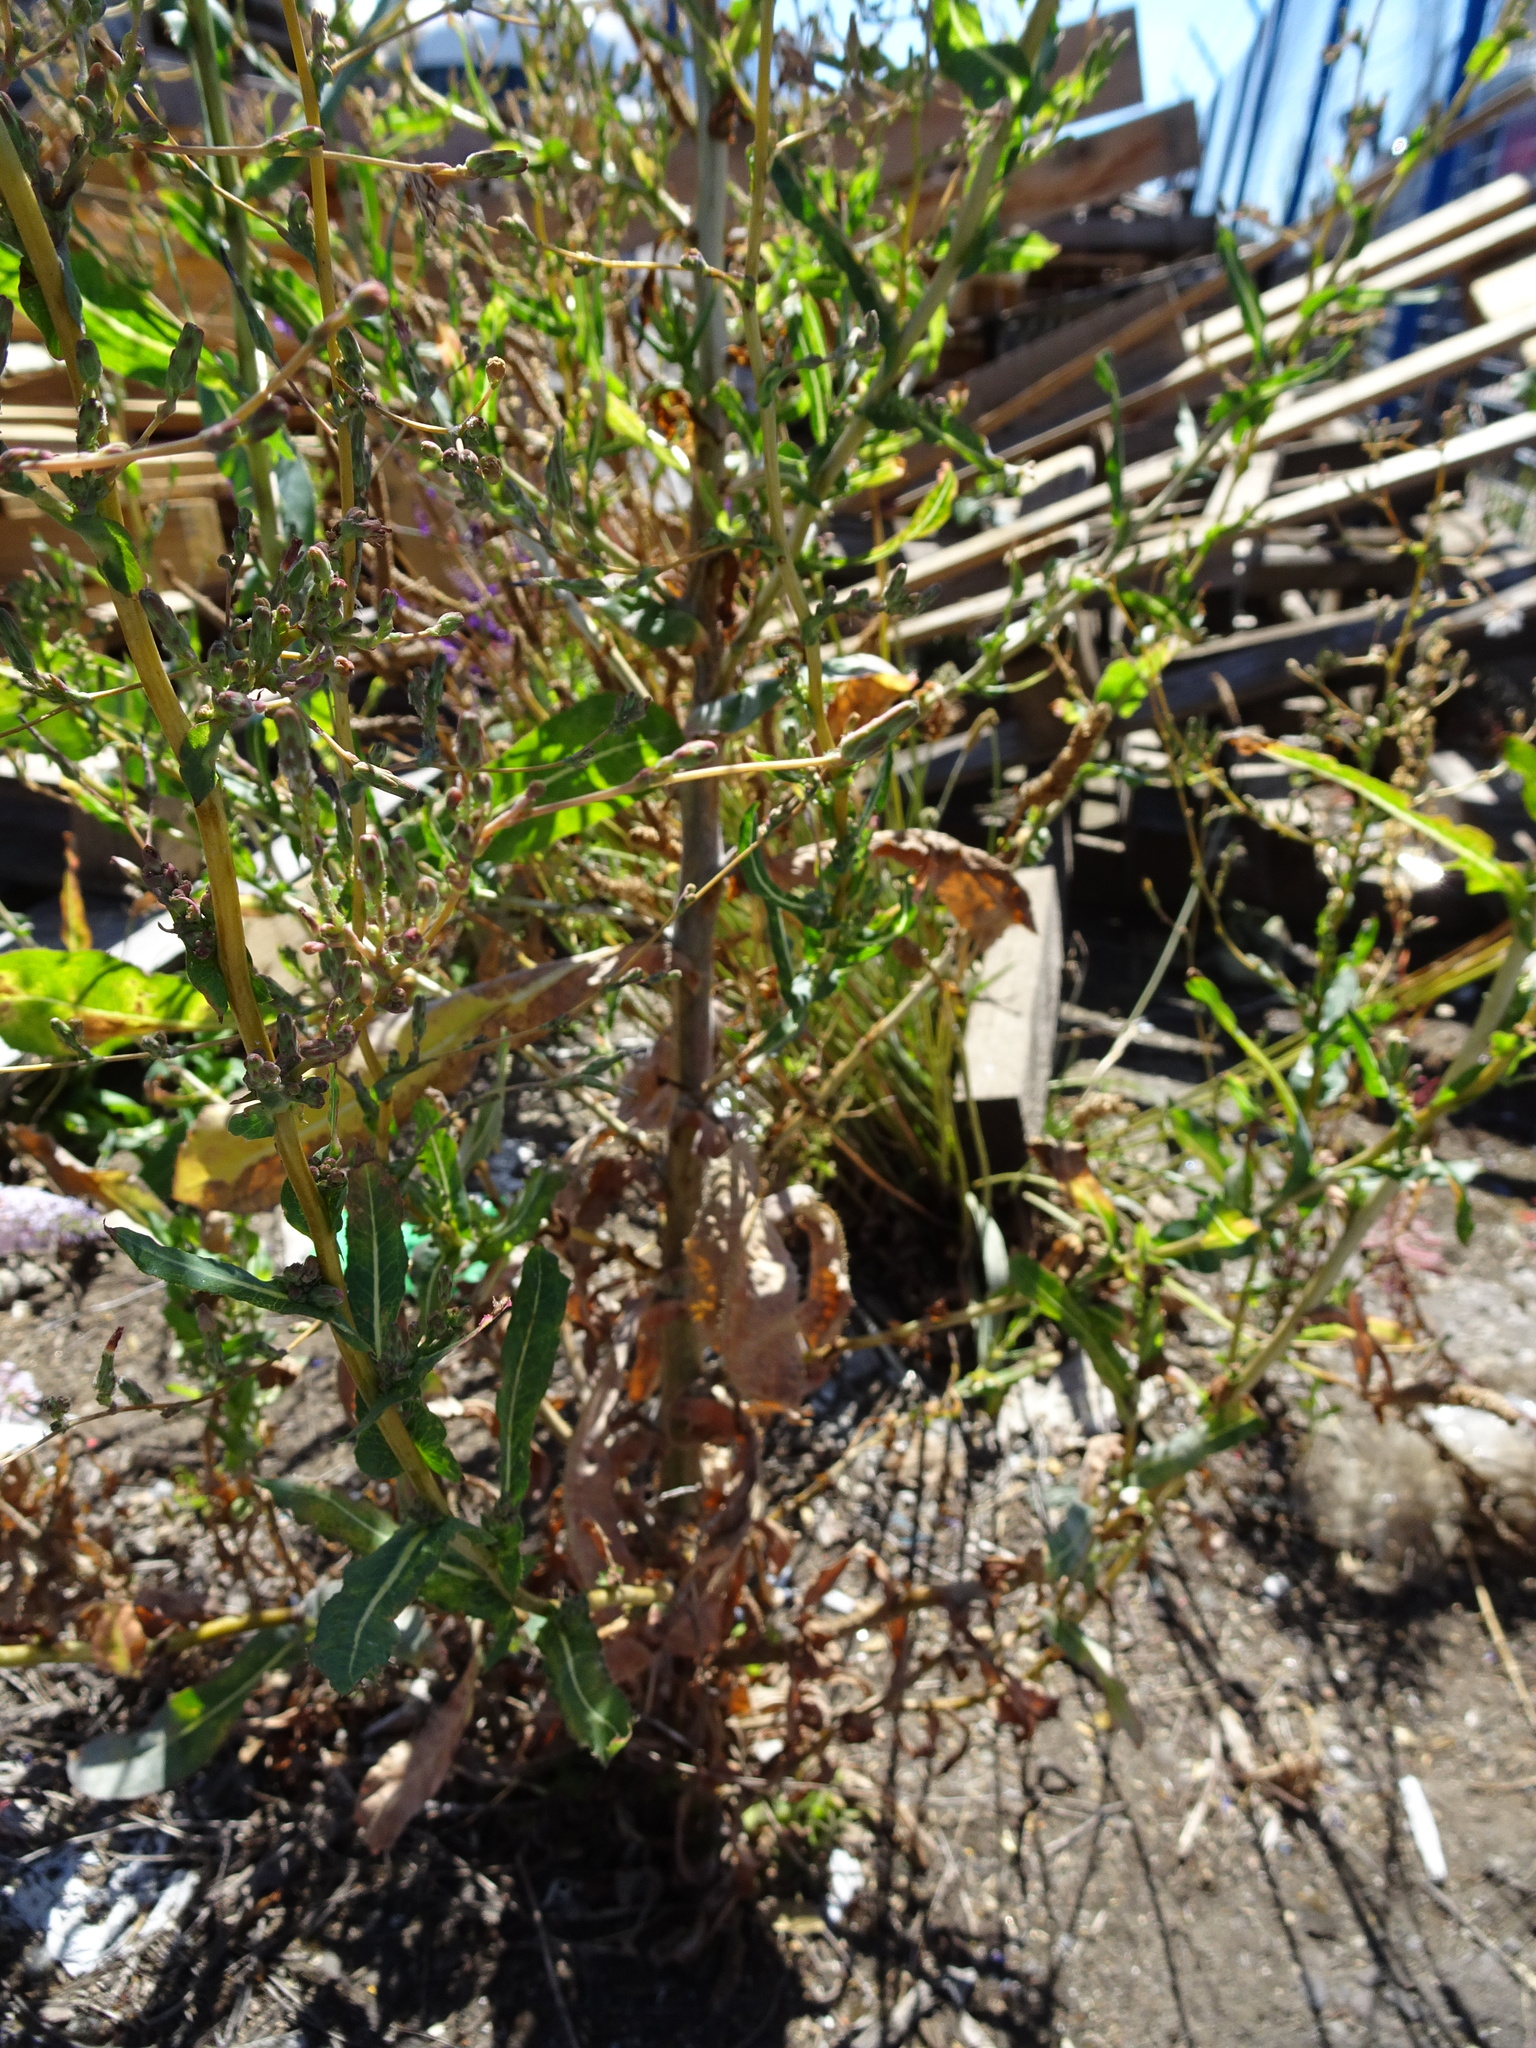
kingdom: Plantae
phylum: Tracheophyta
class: Magnoliopsida
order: Asterales
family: Asteraceae
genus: Lactuca
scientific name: Lactuca serriola
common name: Prickly lettuce
